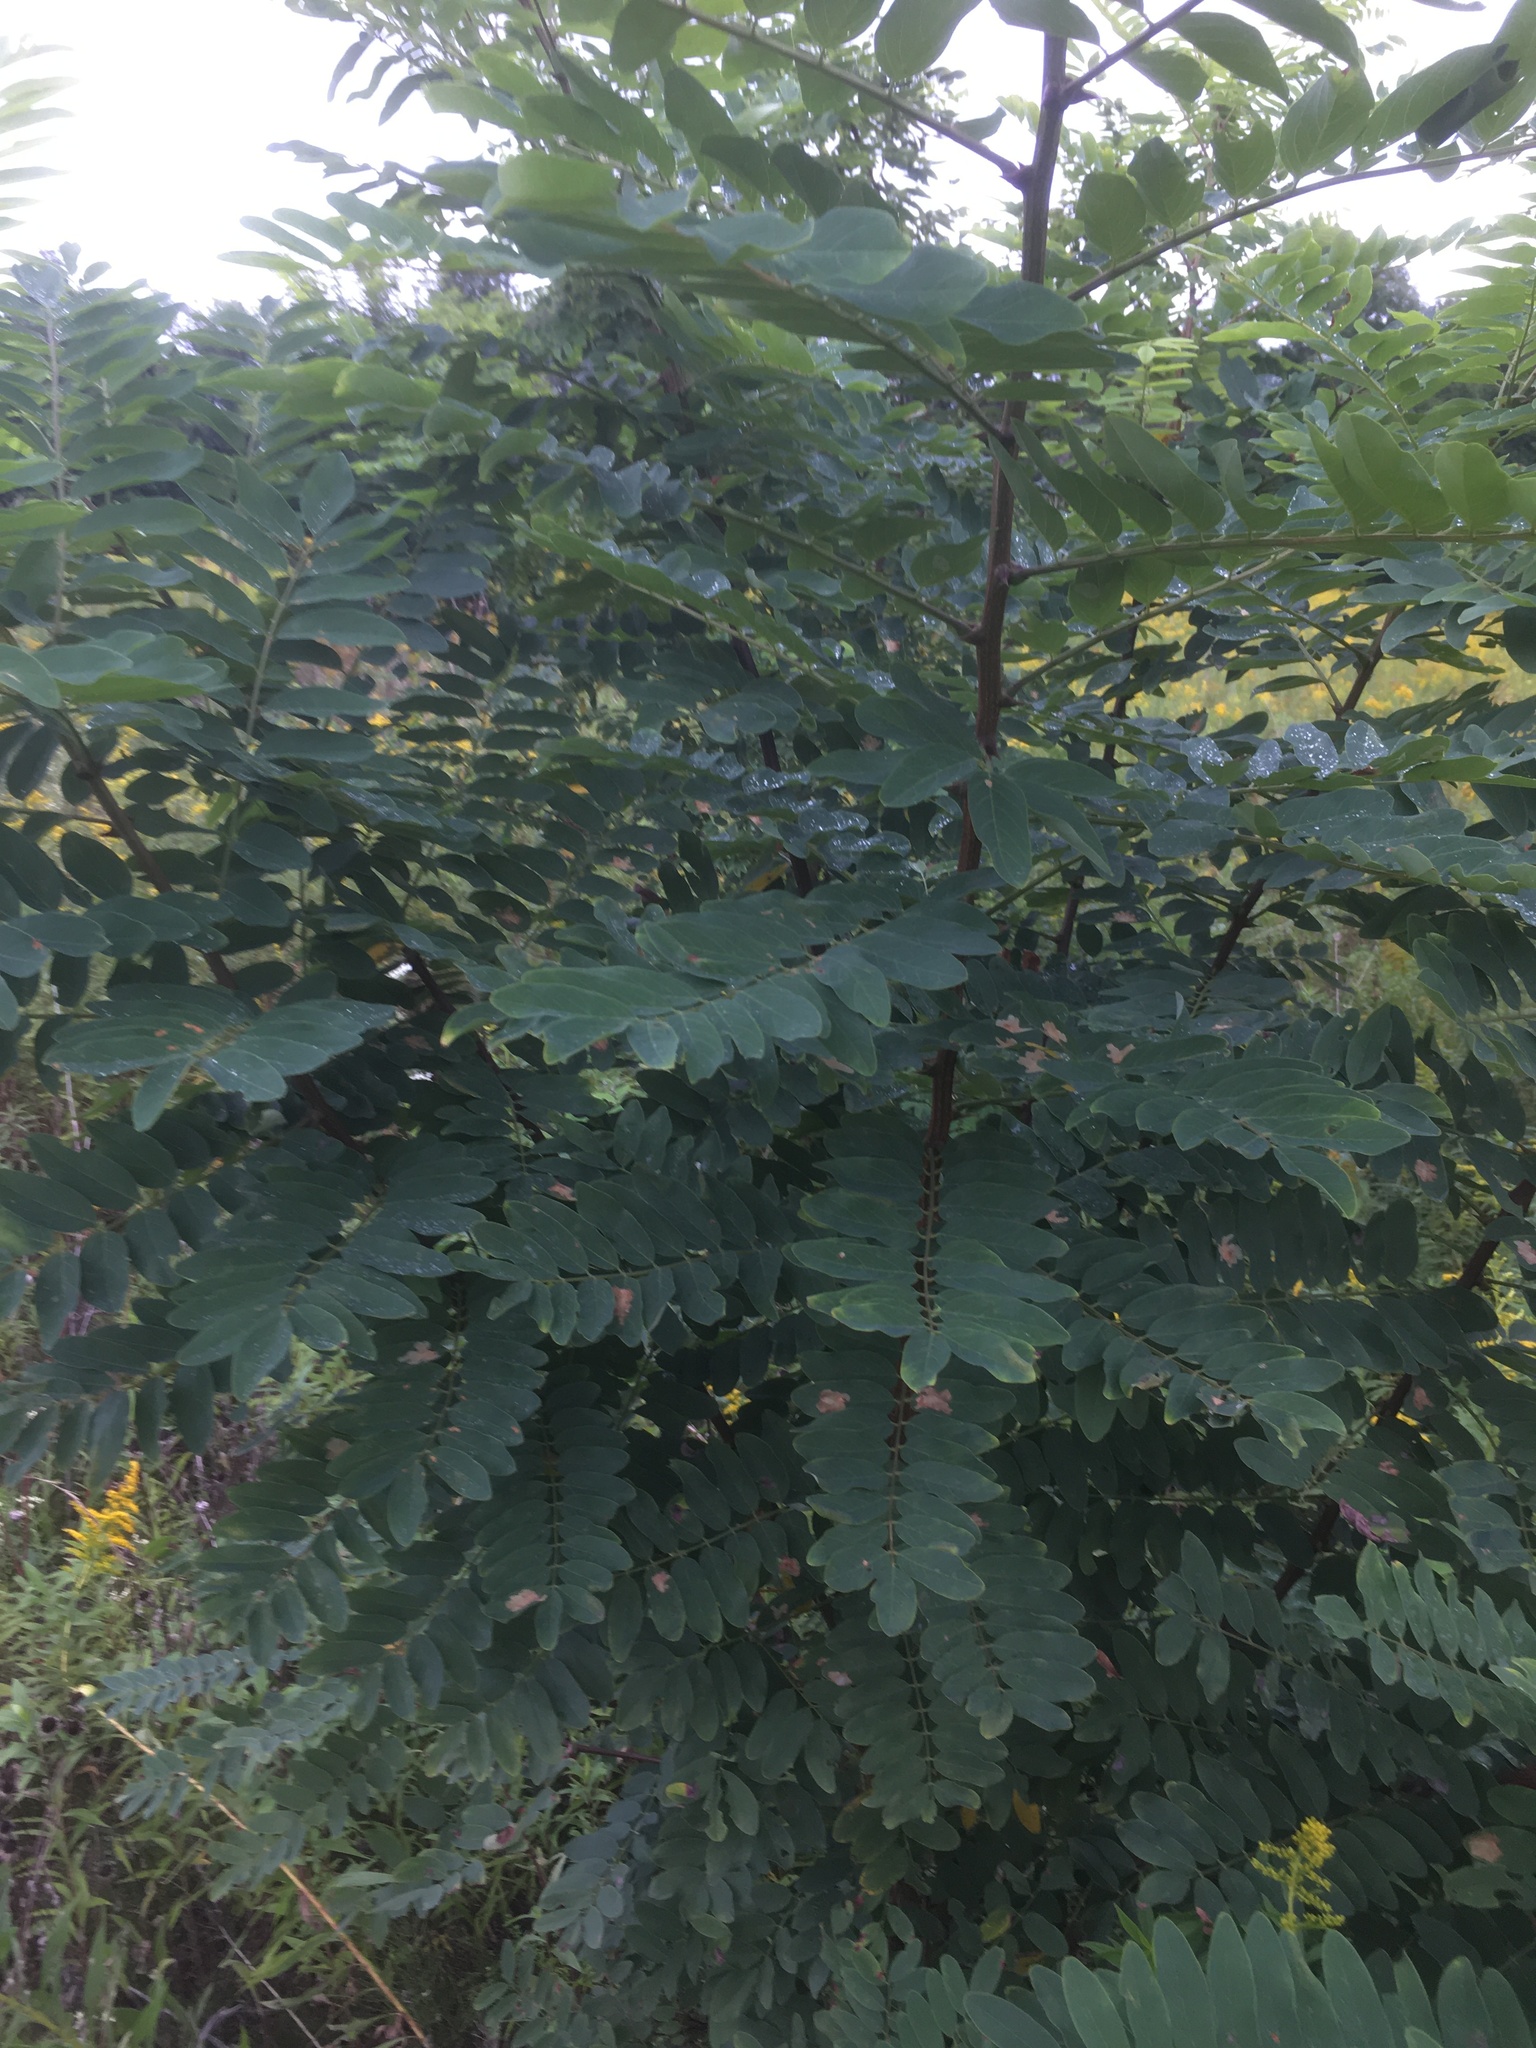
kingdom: Plantae
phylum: Tracheophyta
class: Magnoliopsida
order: Fabales
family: Fabaceae
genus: Robinia
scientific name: Robinia pseudoacacia
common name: Black locust
